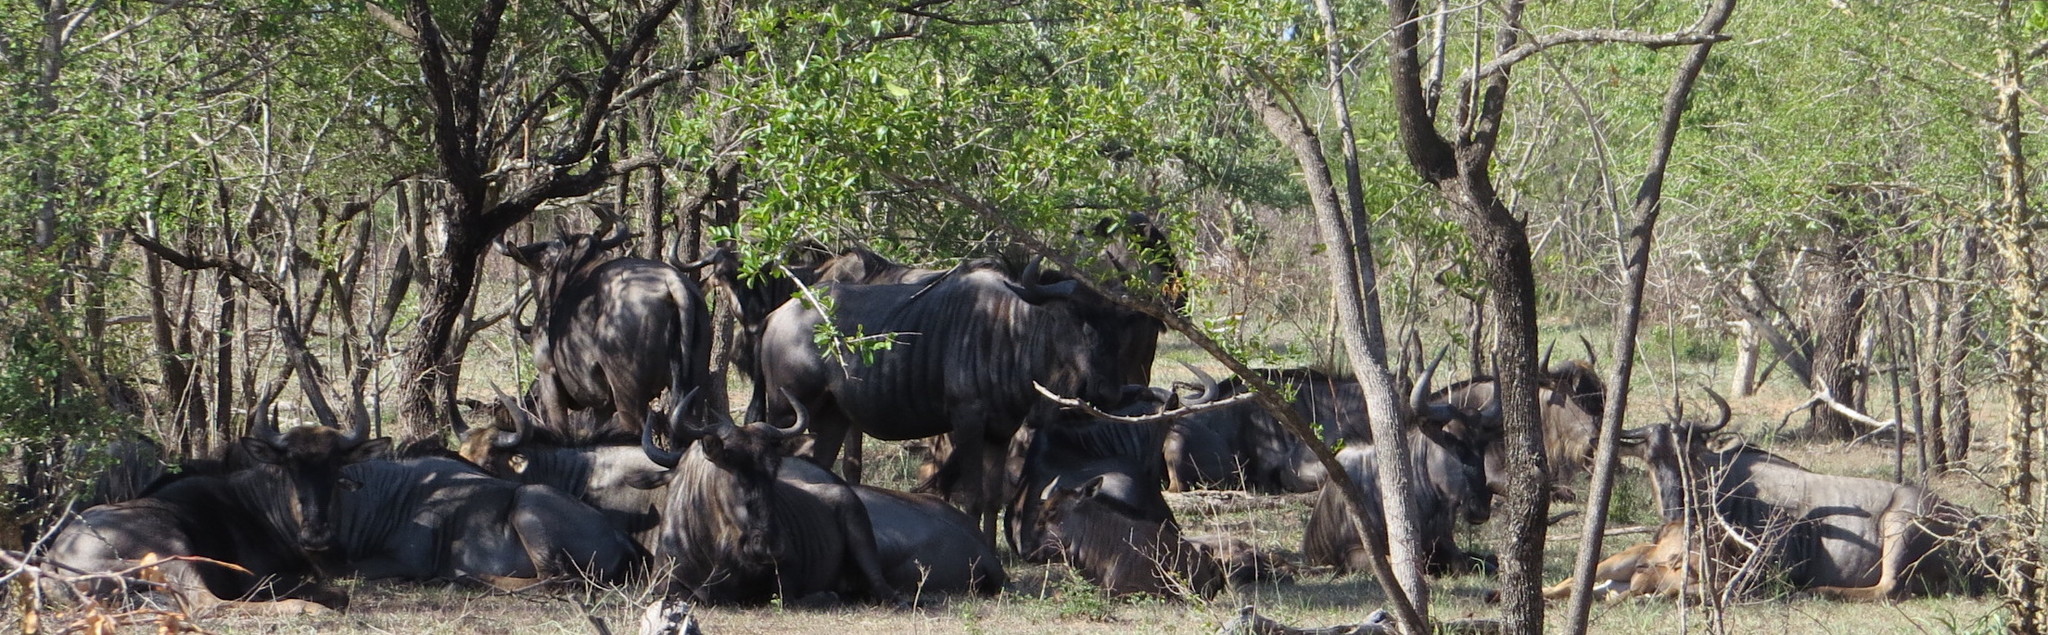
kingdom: Animalia
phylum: Chordata
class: Mammalia
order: Artiodactyla
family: Bovidae
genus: Connochaetes
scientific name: Connochaetes taurinus
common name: Blue wildebeest
